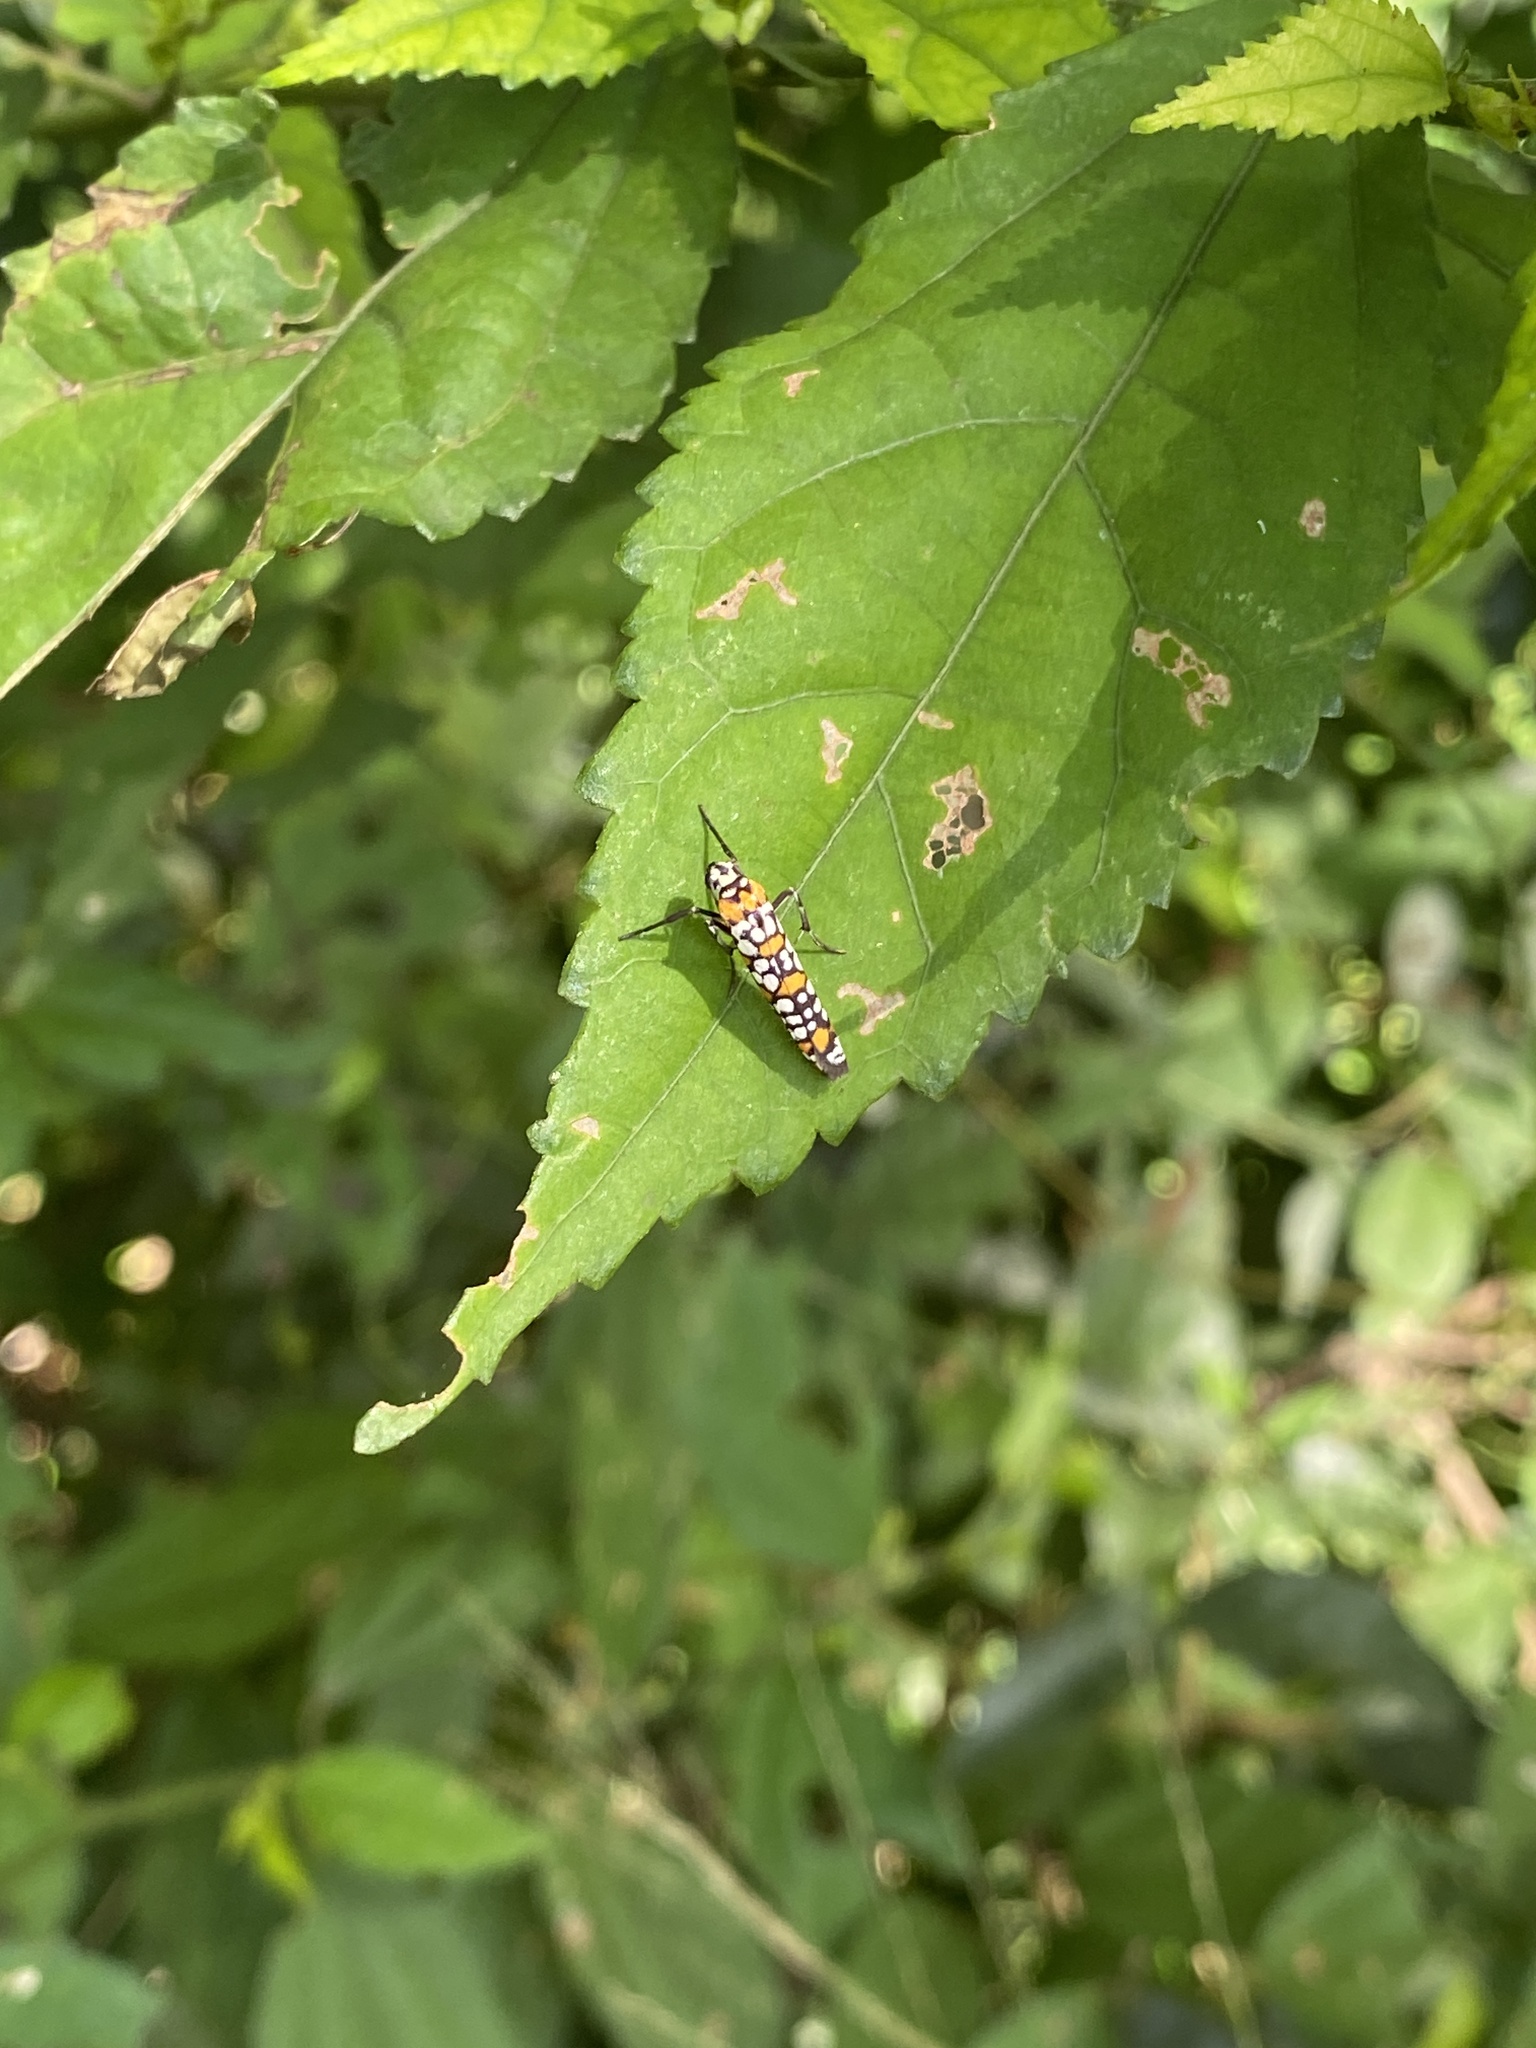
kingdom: Animalia
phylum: Arthropoda
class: Insecta
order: Lepidoptera
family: Attevidae
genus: Atteva
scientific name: Atteva punctella
